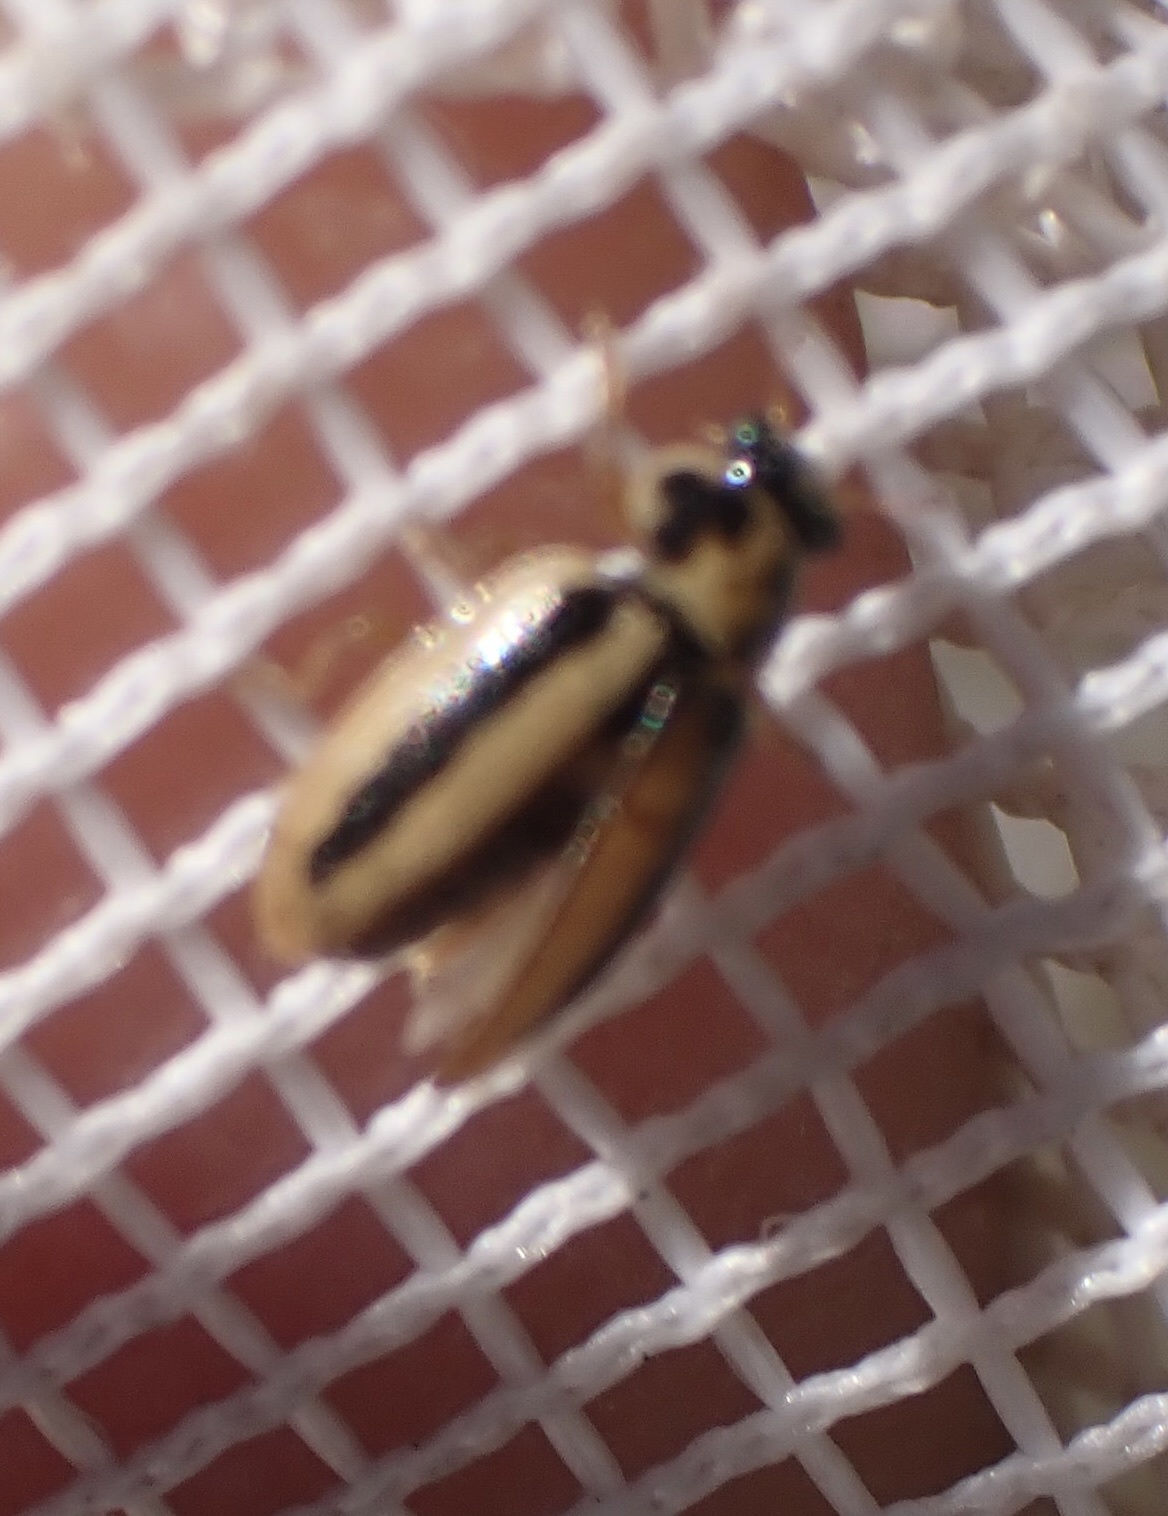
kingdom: Animalia
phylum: Arthropoda
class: Insecta
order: Coleoptera
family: Coccinellidae
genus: Paranaemia
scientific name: Paranaemia vittigera
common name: Ladybird beetle
